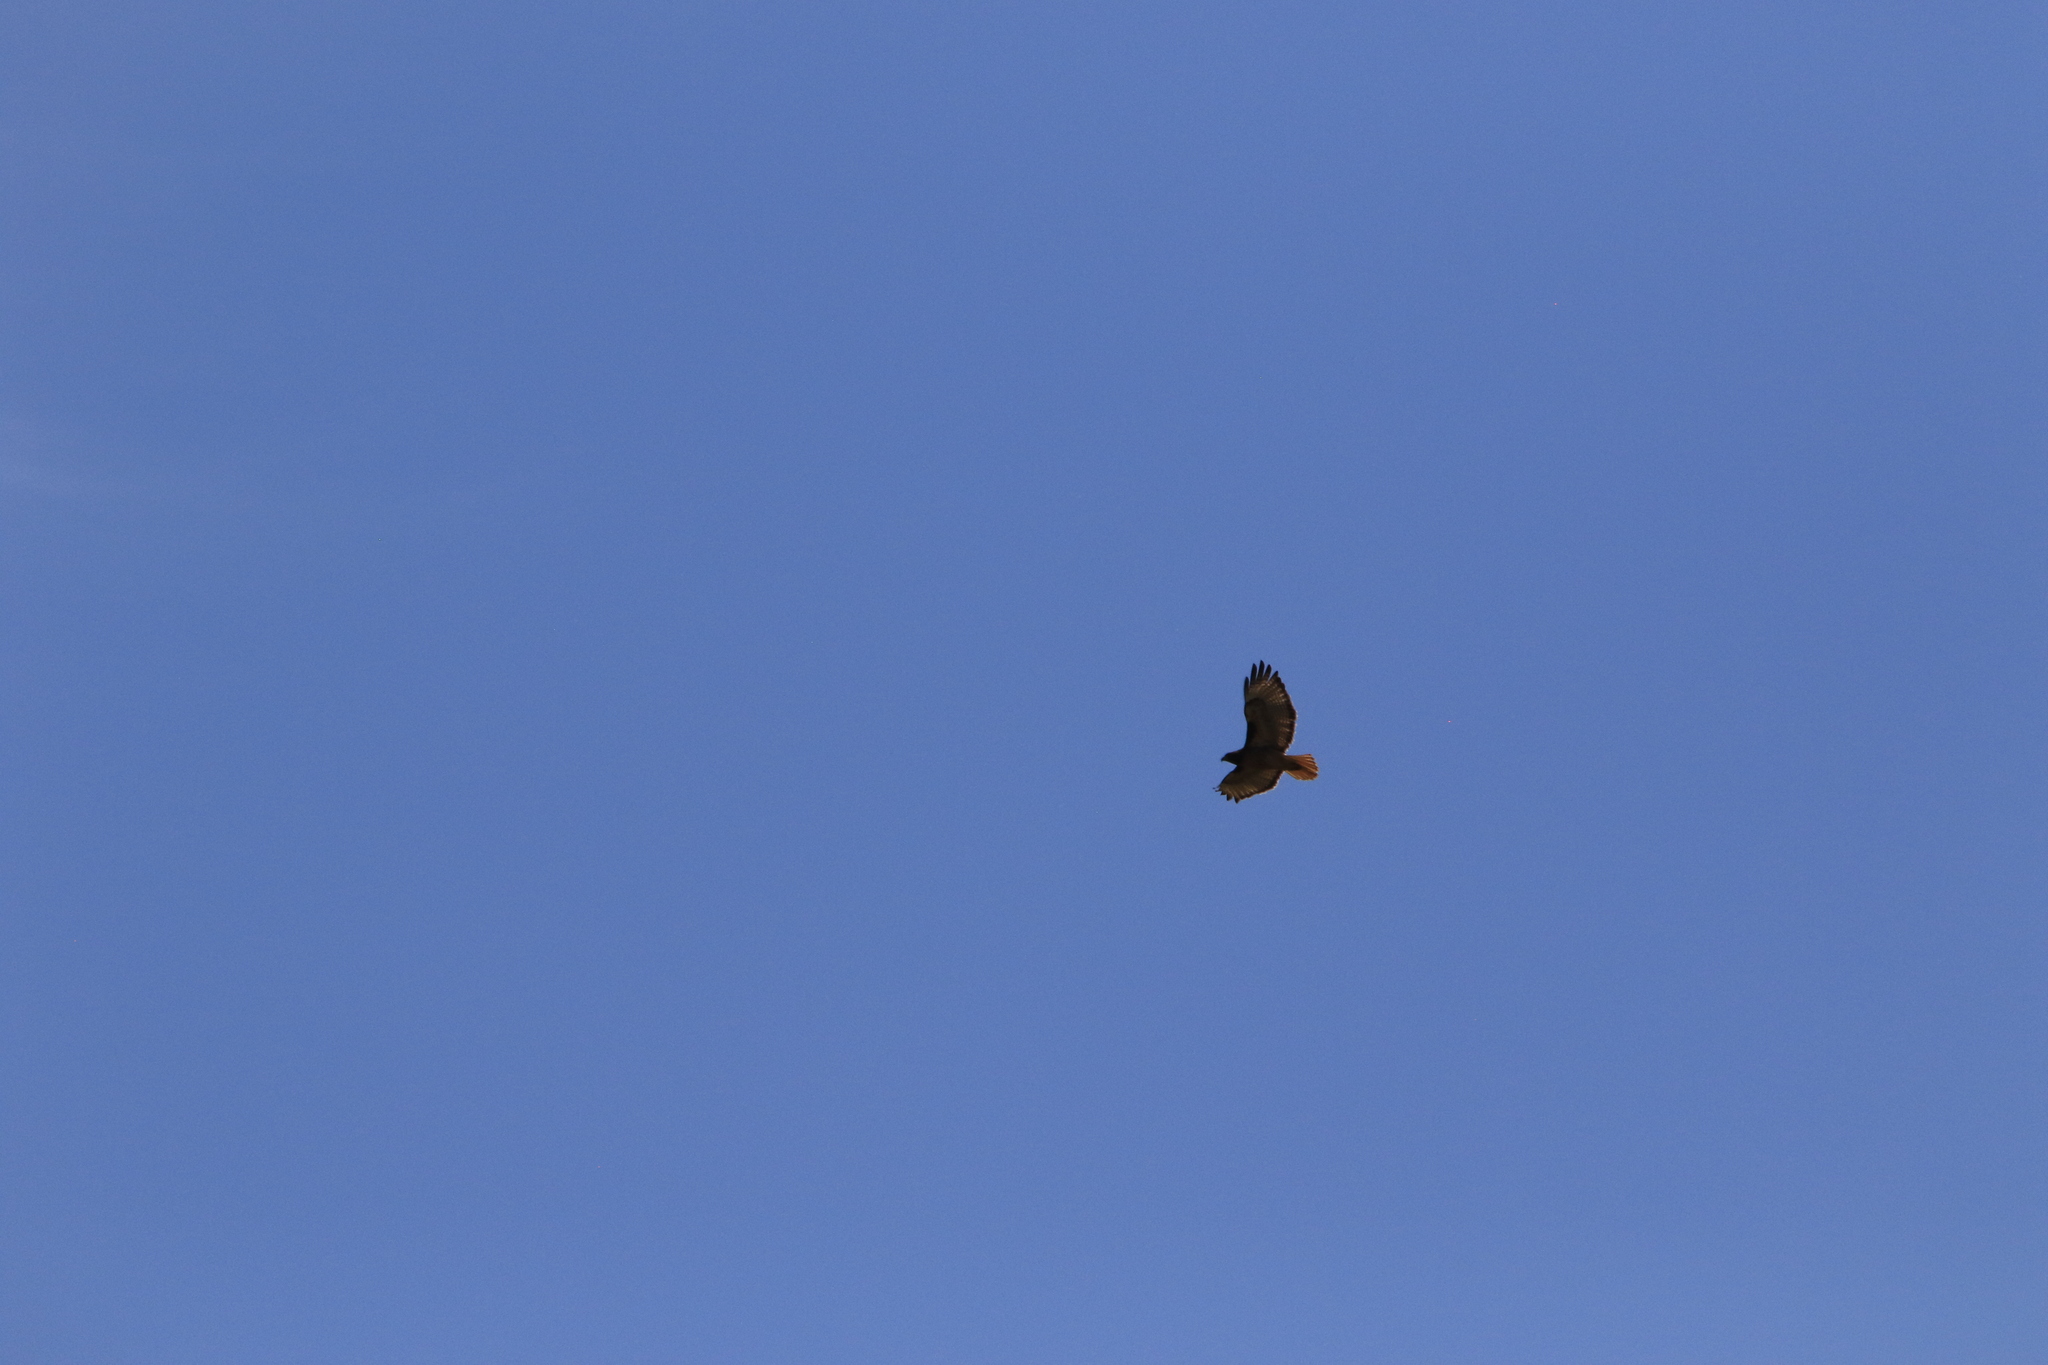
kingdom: Animalia
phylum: Chordata
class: Aves
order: Accipitriformes
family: Accipitridae
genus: Buteo
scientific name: Buteo jamaicensis
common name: Red-tailed hawk
